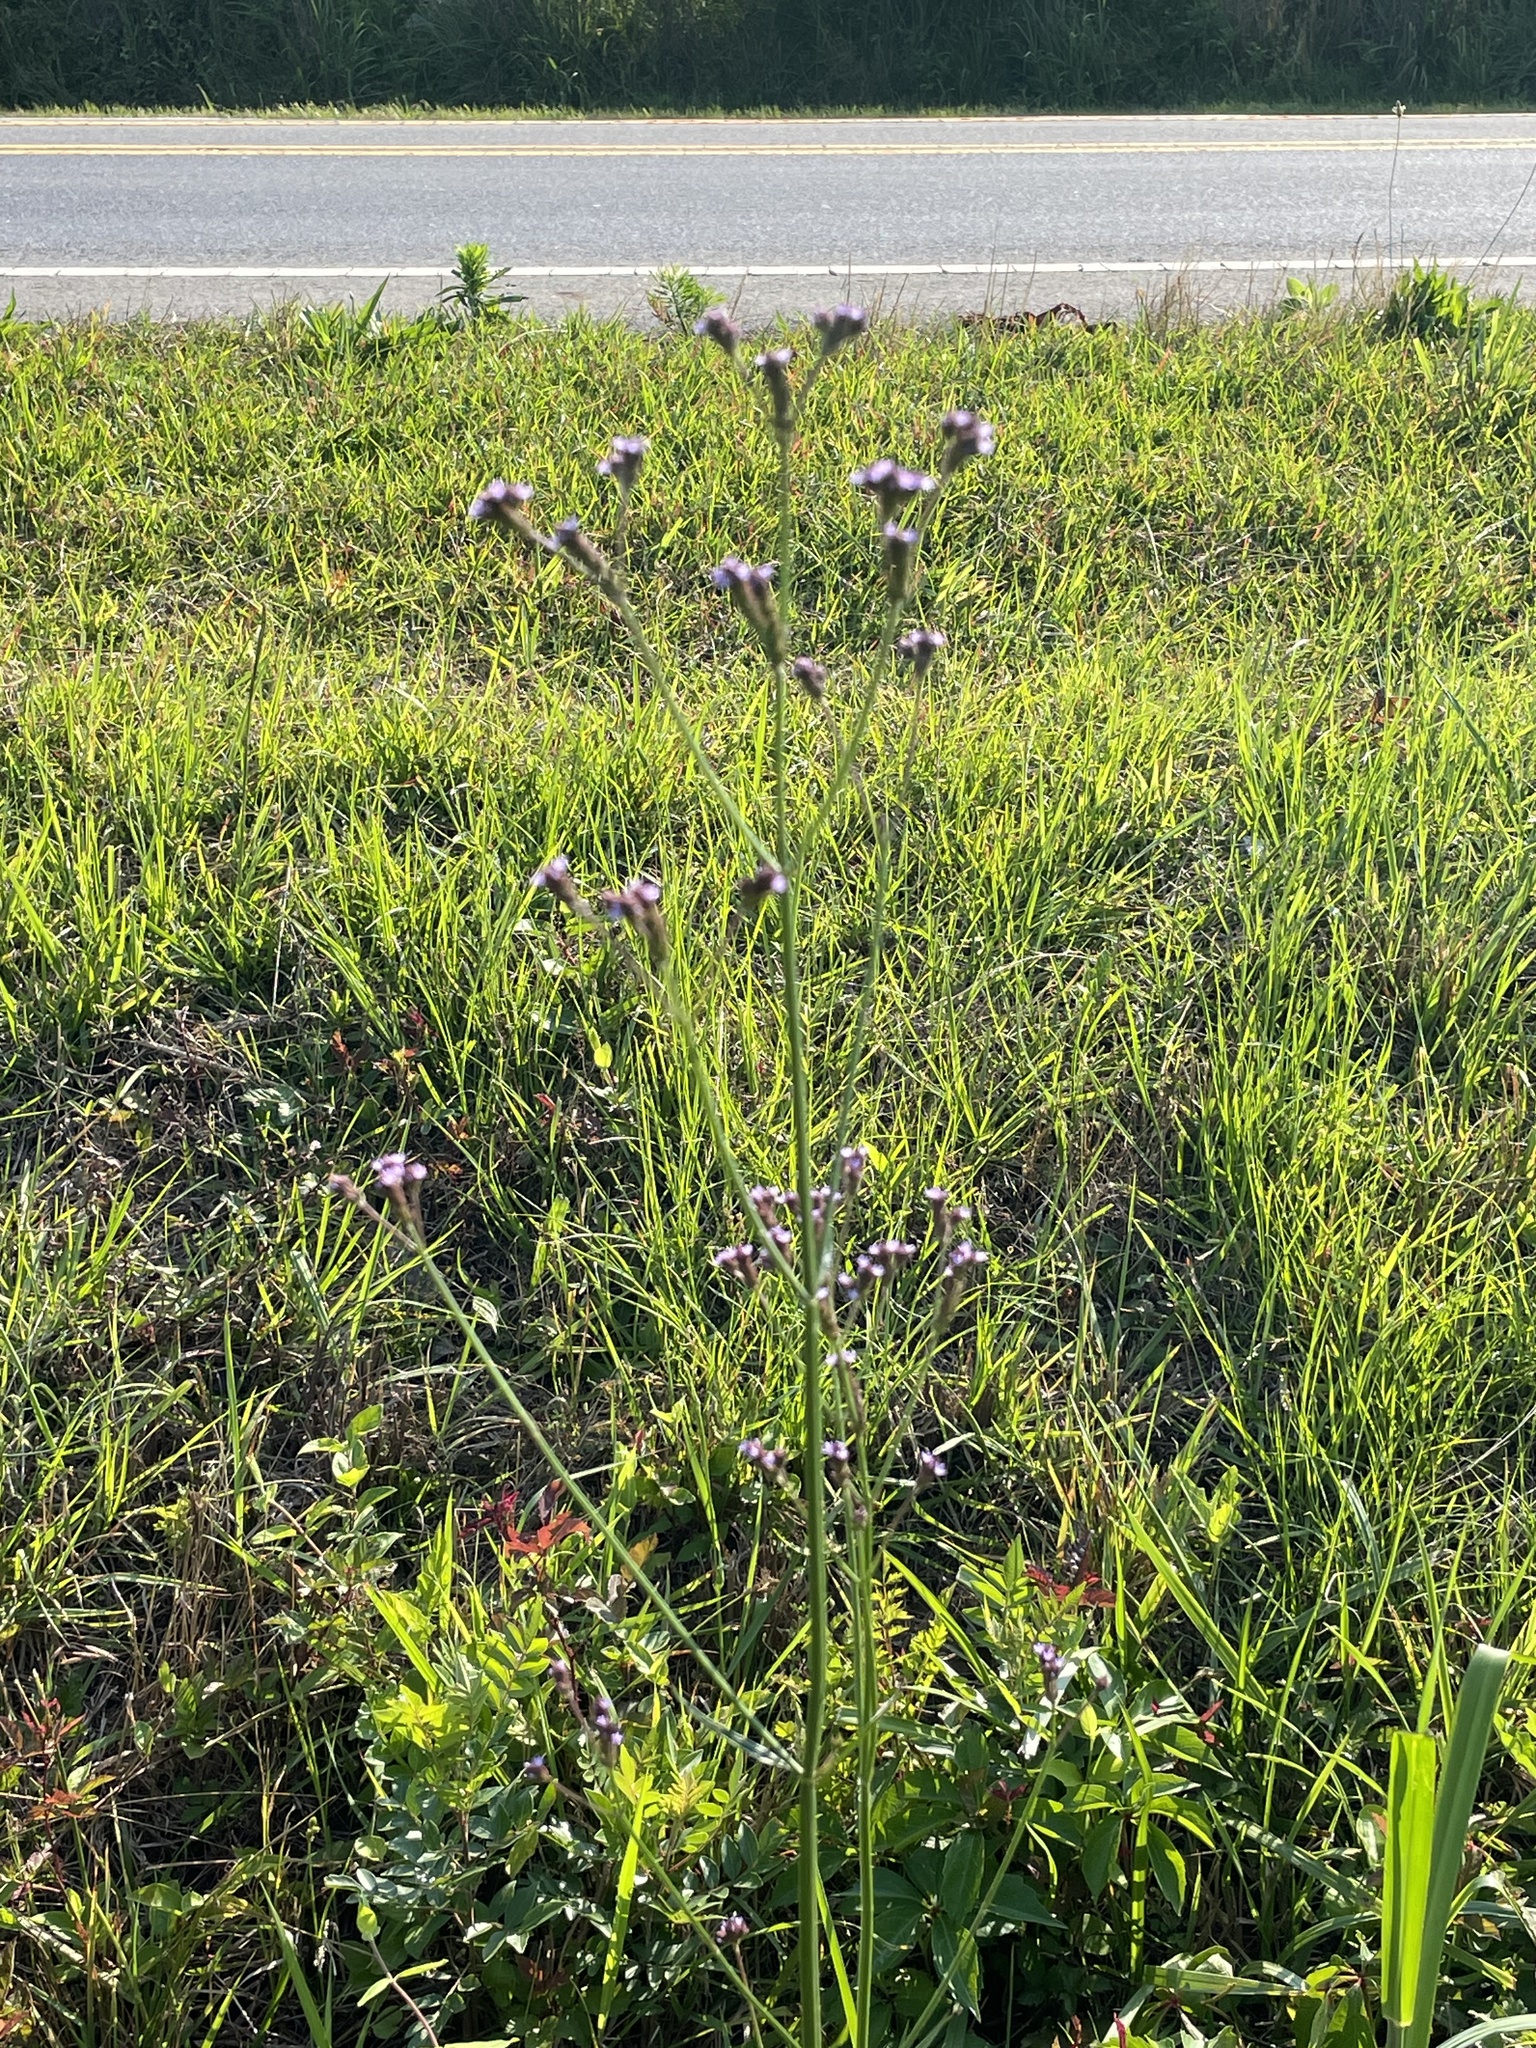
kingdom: Plantae
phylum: Tracheophyta
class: Magnoliopsida
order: Lamiales
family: Verbenaceae
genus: Verbena
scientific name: Verbena brasiliensis
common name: Brazilian vervain
